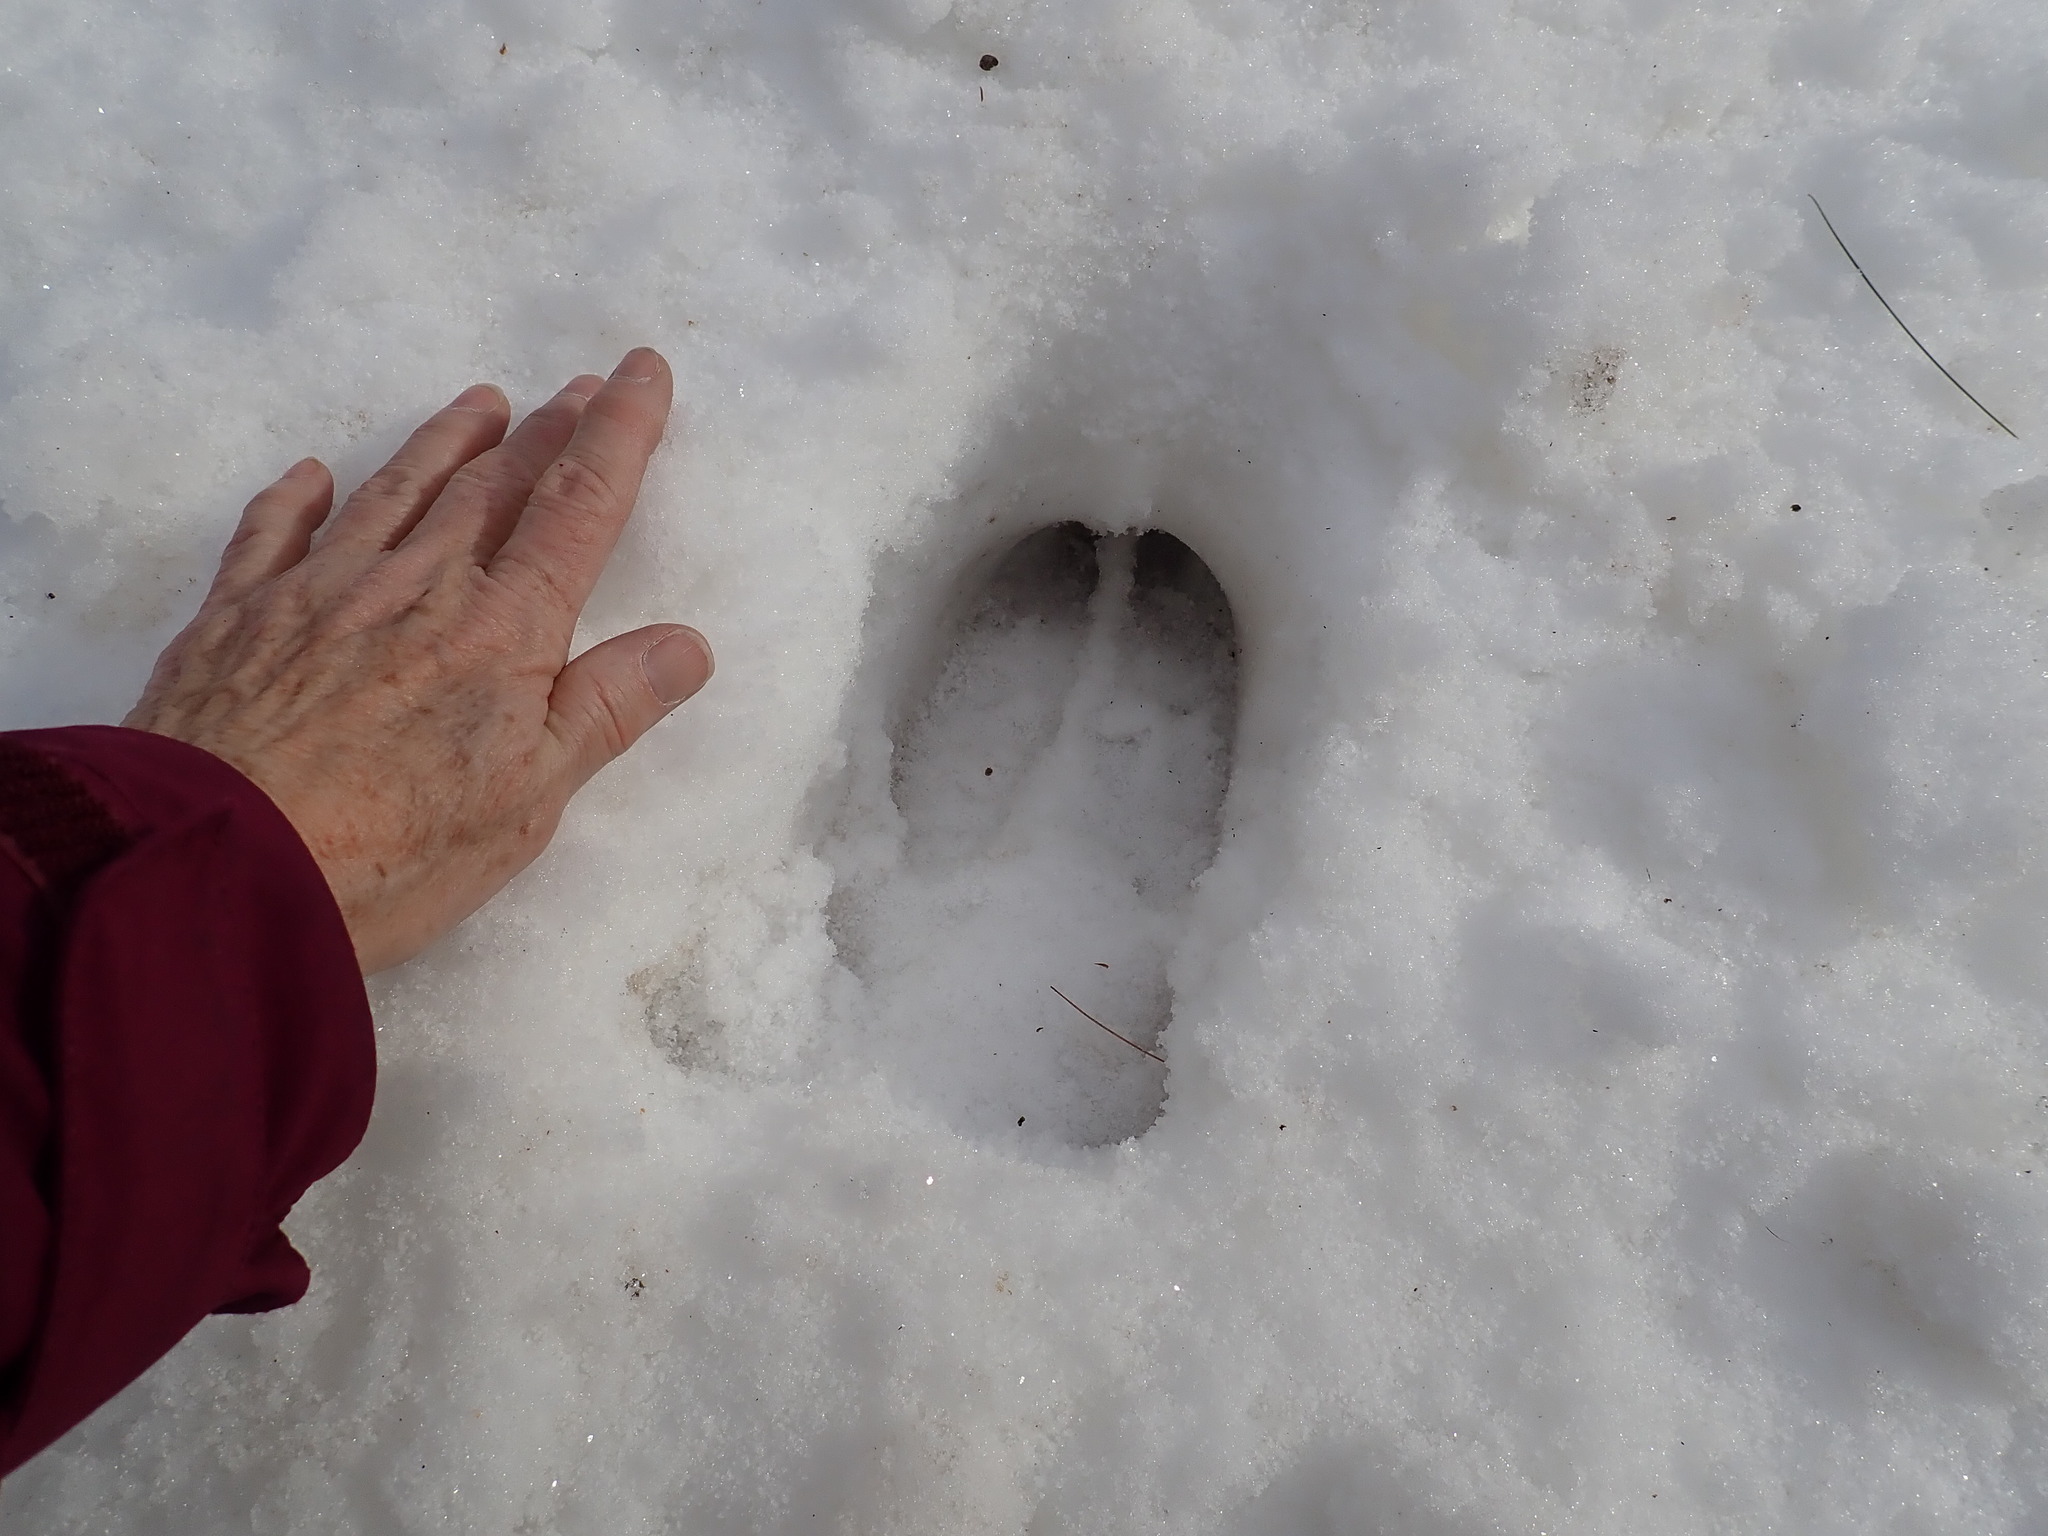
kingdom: Animalia
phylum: Chordata
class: Mammalia
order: Artiodactyla
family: Cervidae
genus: Alces
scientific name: Alces alces
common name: Moose
